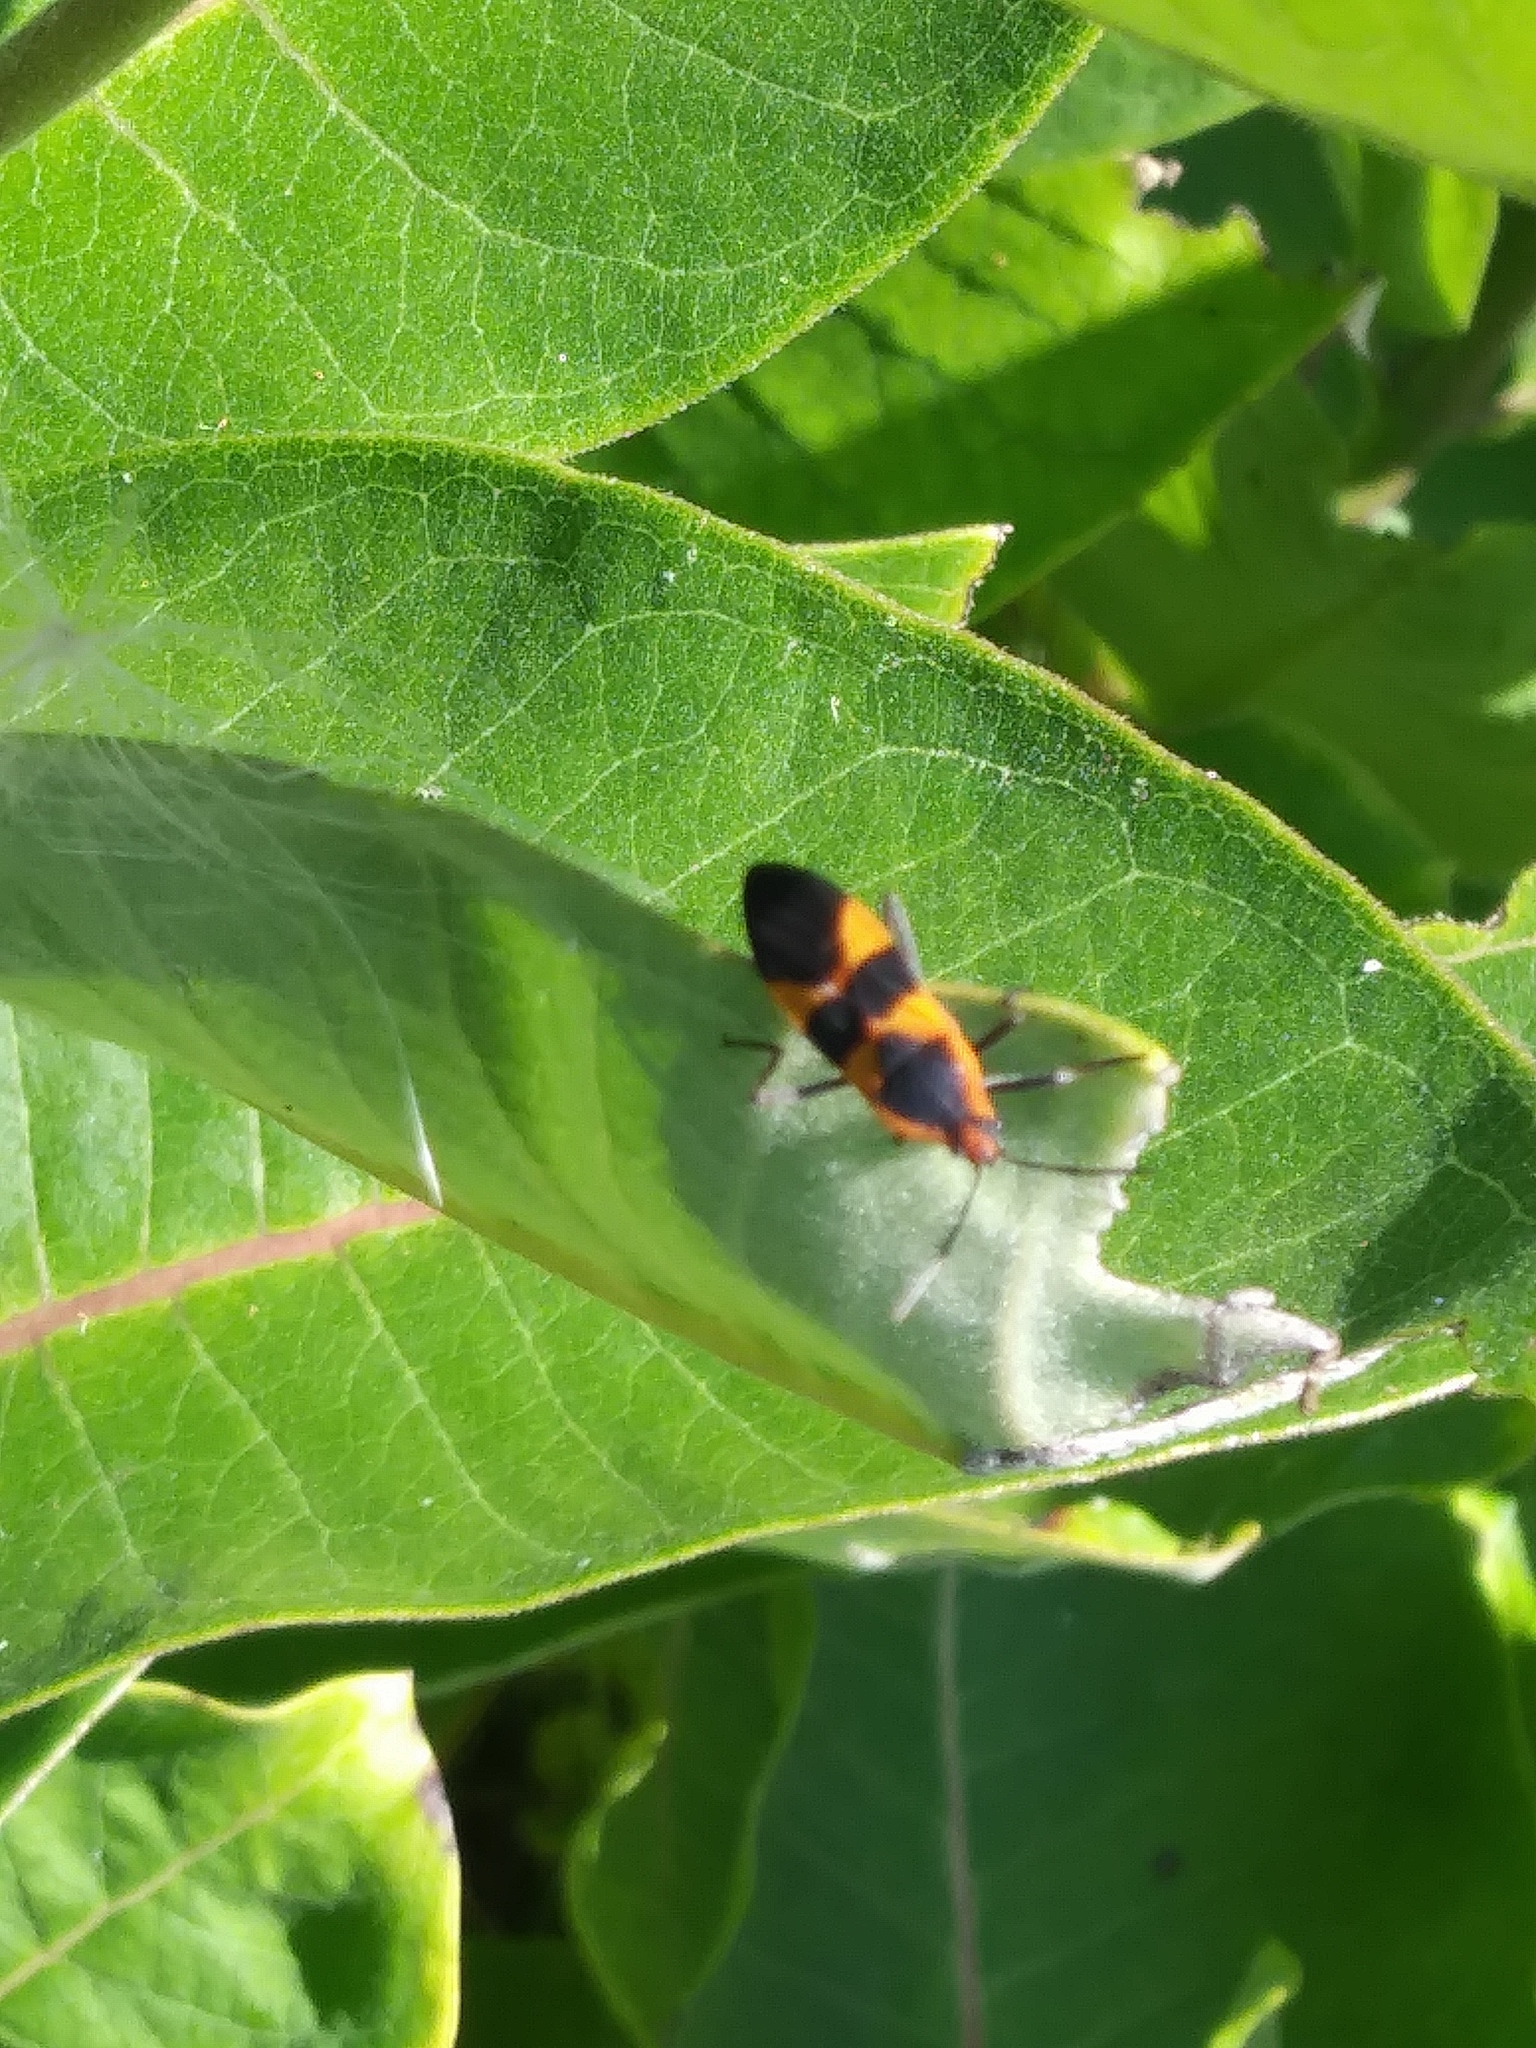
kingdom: Animalia
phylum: Arthropoda
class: Insecta
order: Hemiptera
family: Lygaeidae
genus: Oncopeltus
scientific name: Oncopeltus fasciatus
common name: Large milkweed bug
